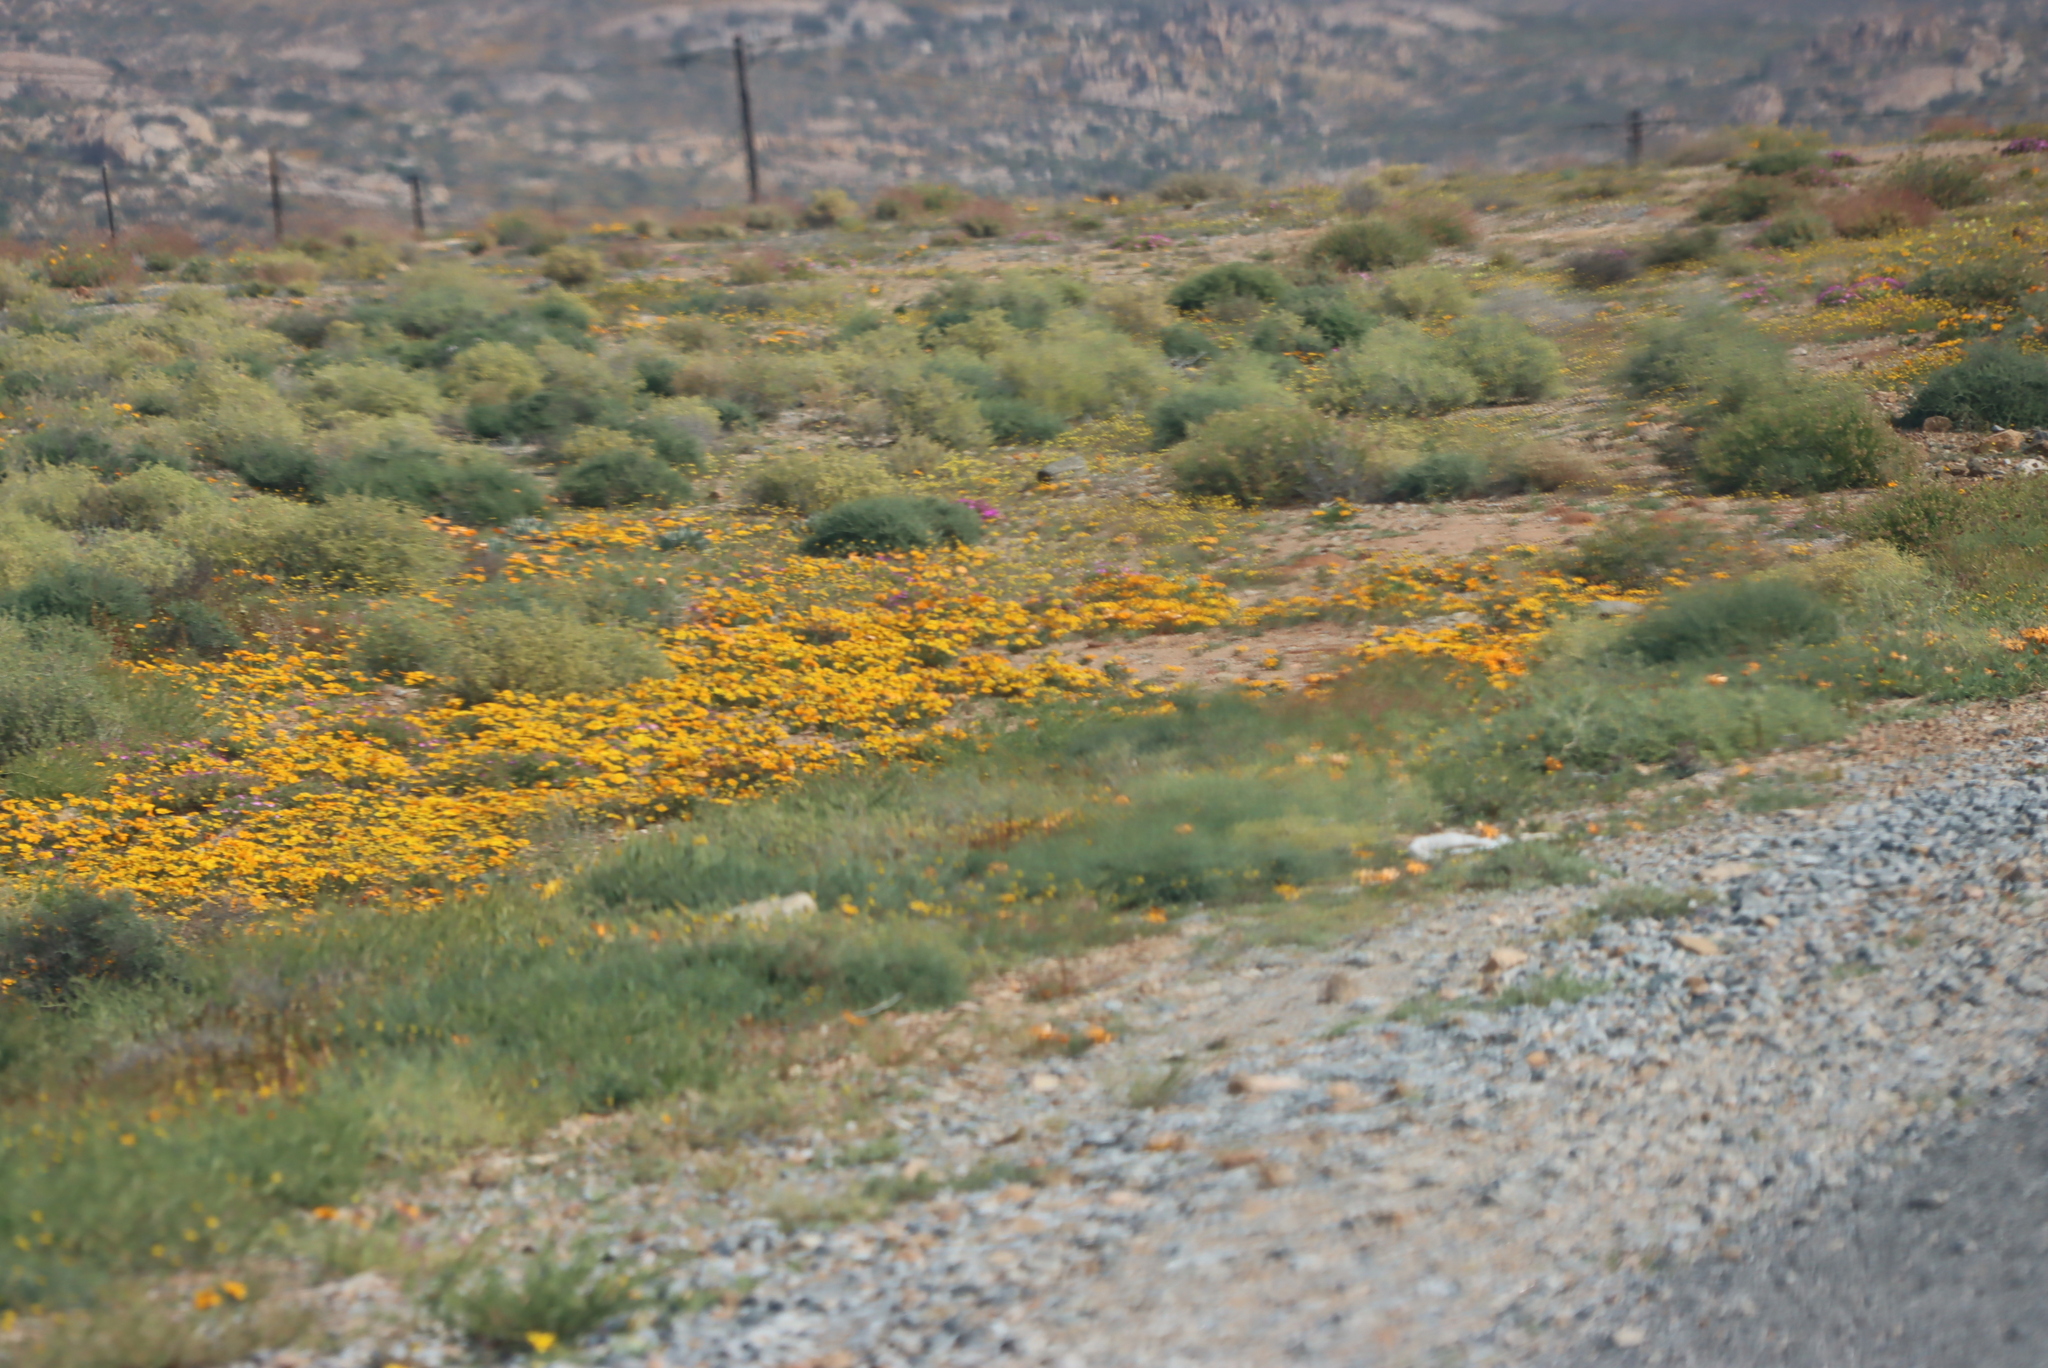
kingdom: Plantae
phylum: Tracheophyta
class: Magnoliopsida
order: Asterales
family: Asteraceae
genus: Dimorphotheca
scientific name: Dimorphotheca sinuata
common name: Glandular cape marigold
